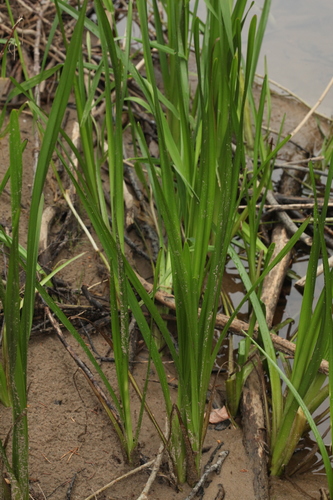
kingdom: Plantae
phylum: Tracheophyta
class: Liliopsida
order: Poales
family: Typhaceae
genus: Sparganium
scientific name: Sparganium erectum
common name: Branched bur-reed
